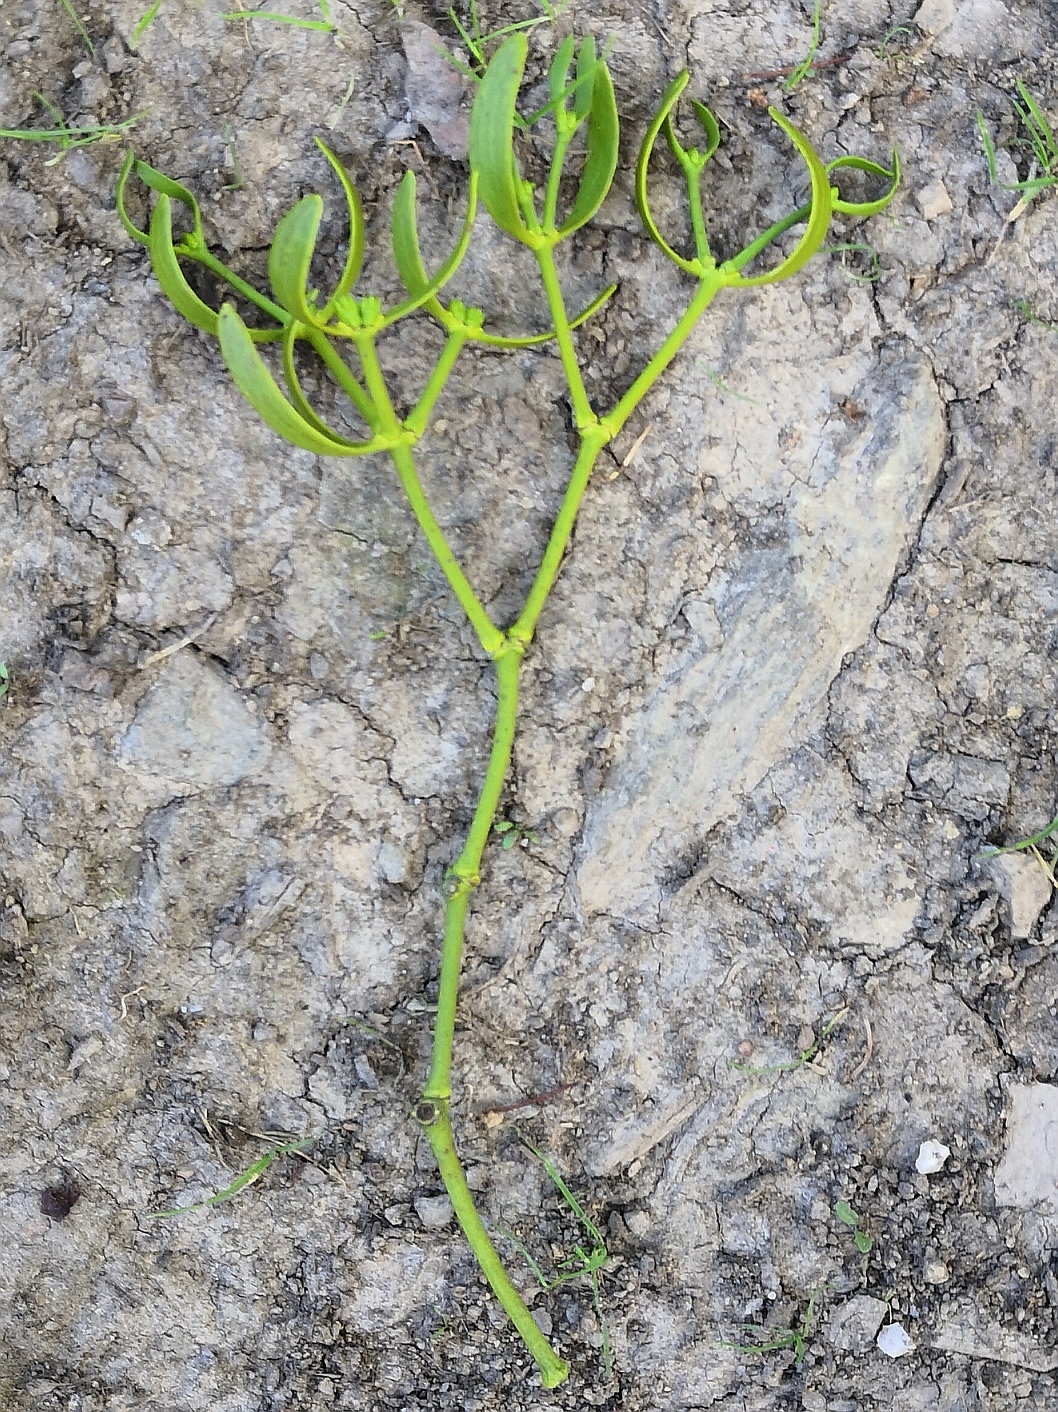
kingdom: Plantae
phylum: Tracheophyta
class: Magnoliopsida
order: Santalales
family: Viscaceae
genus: Viscum
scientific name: Viscum album
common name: Mistletoe
